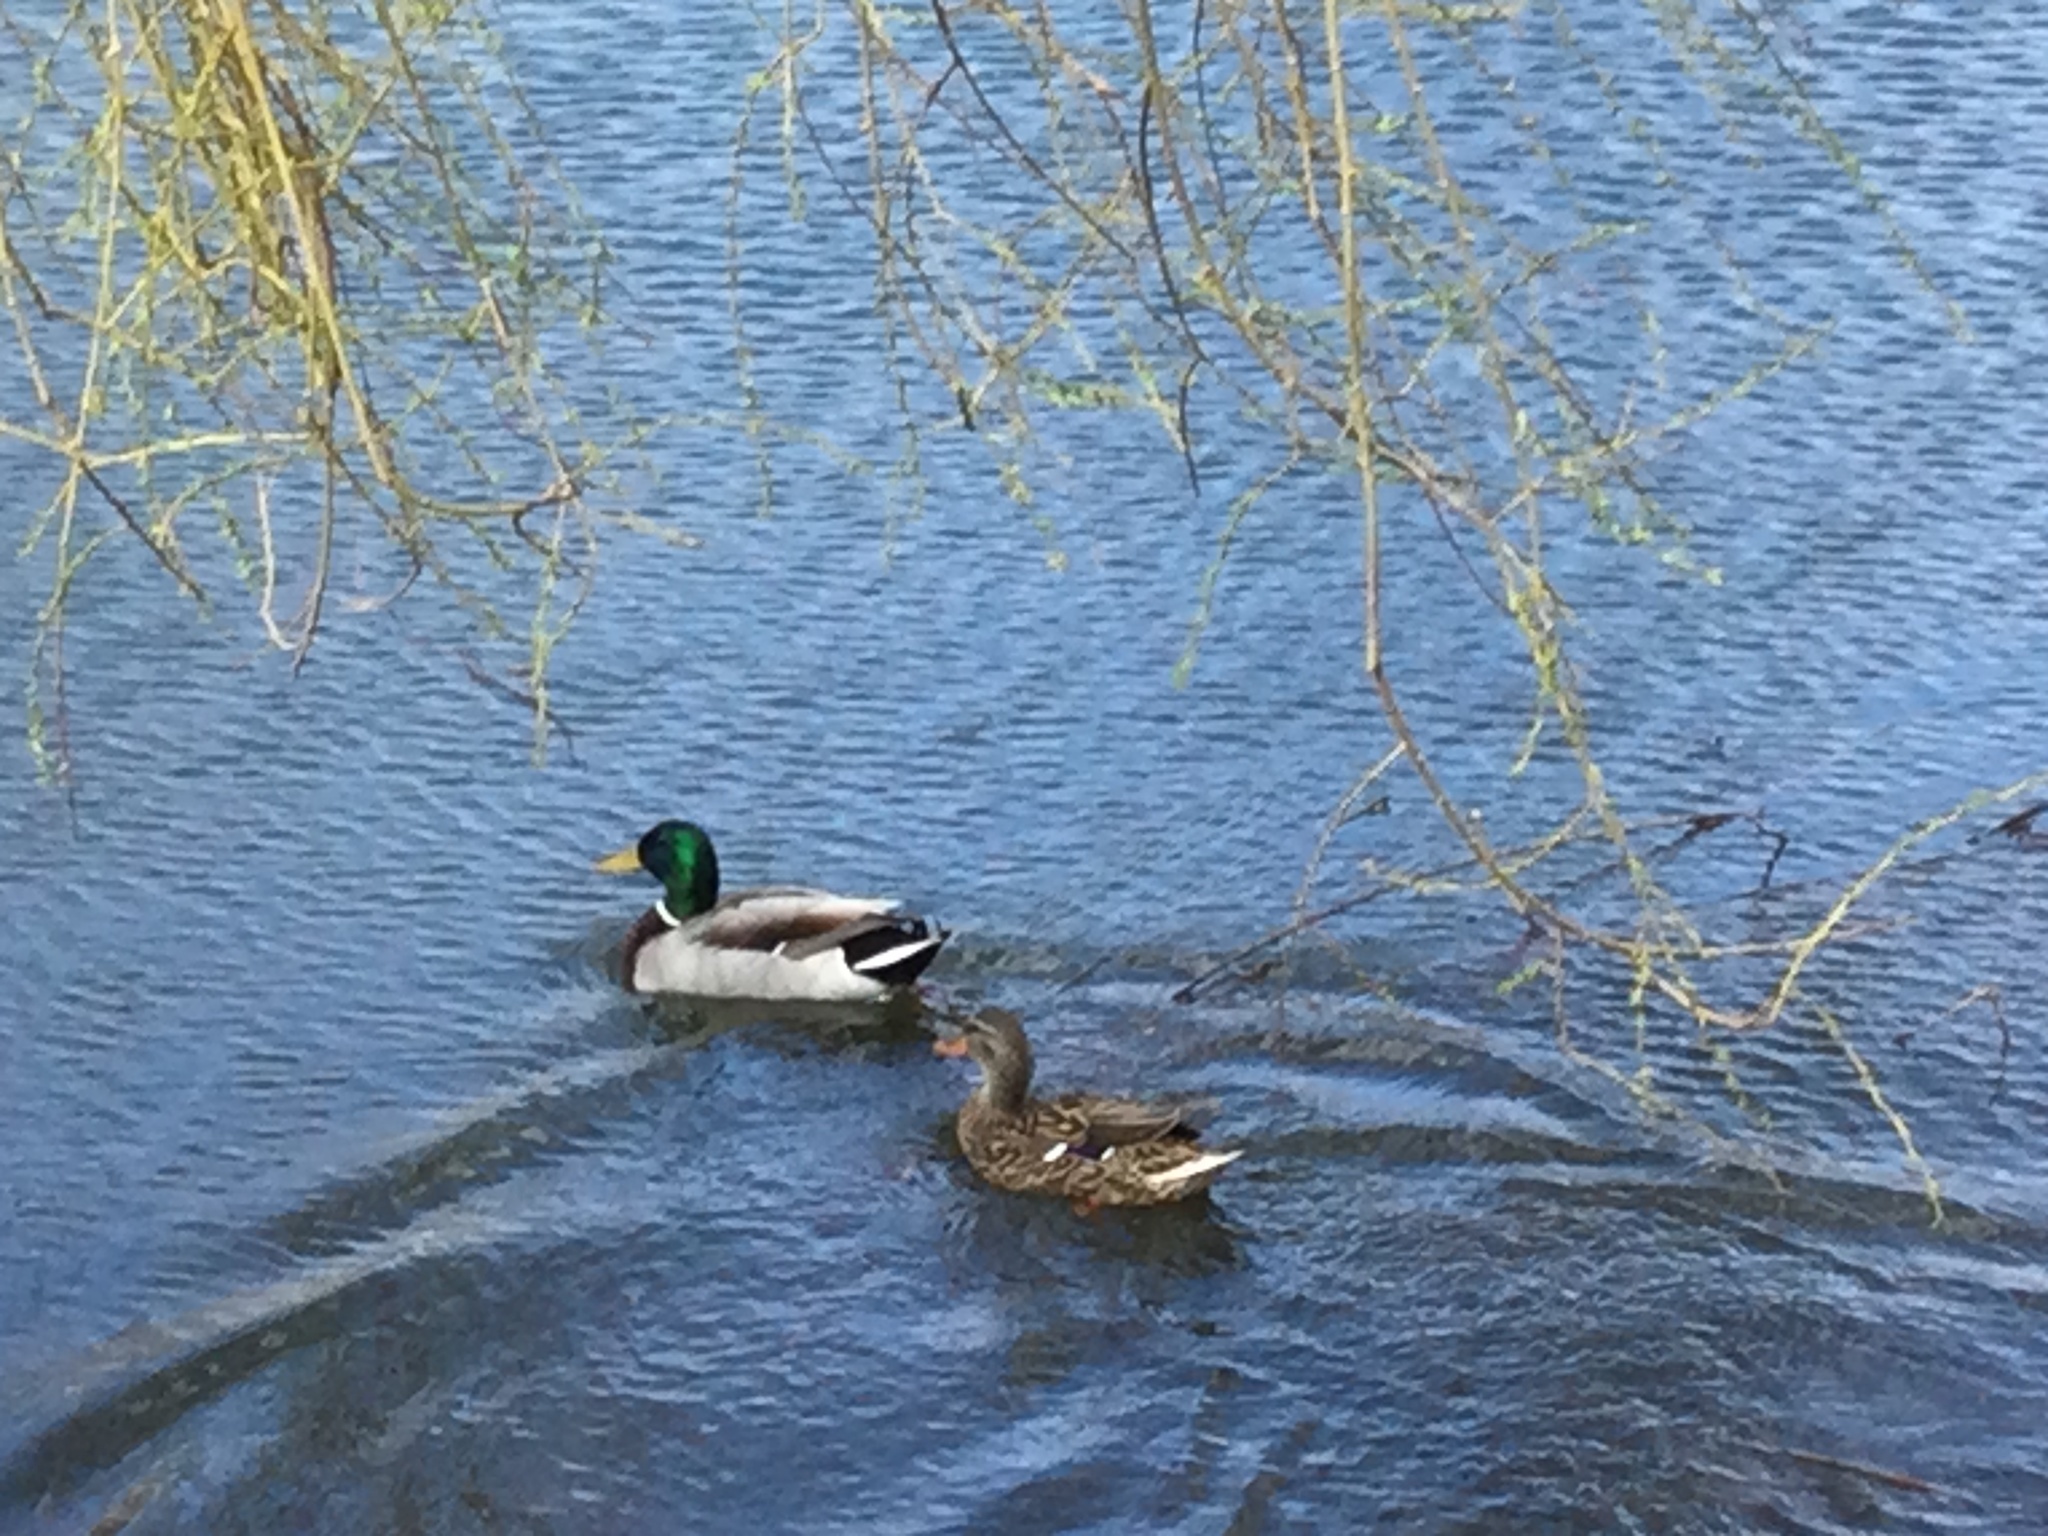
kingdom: Animalia
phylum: Chordata
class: Aves
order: Anseriformes
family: Anatidae
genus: Anas
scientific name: Anas platyrhynchos
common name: Mallard
